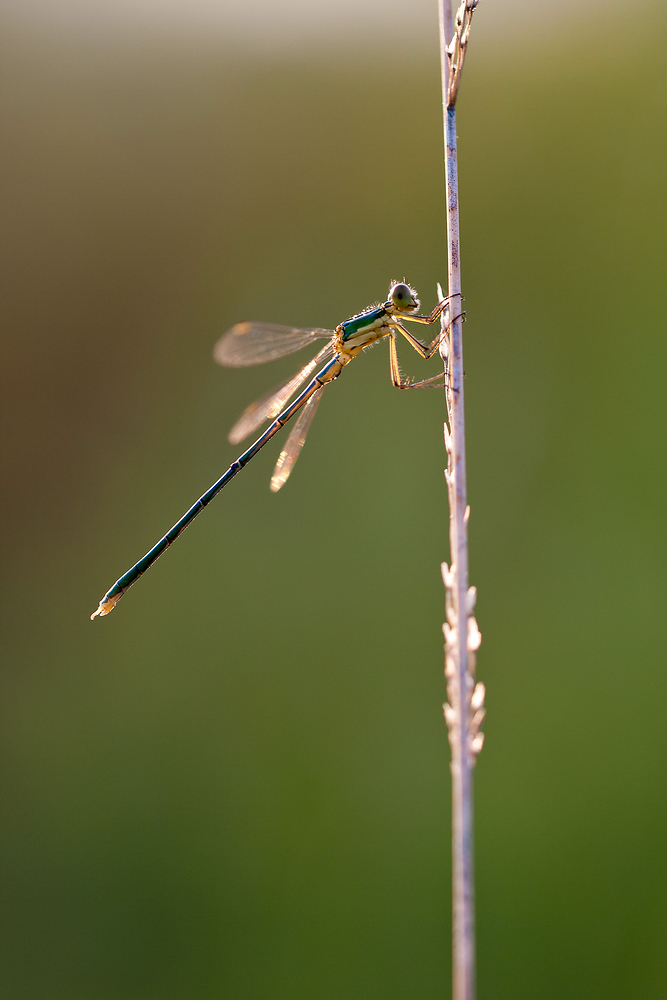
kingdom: Animalia
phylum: Arthropoda
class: Insecta
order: Odonata
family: Lestidae
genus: Lestes
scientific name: Lestes virens
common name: Small emerald spreadwing
